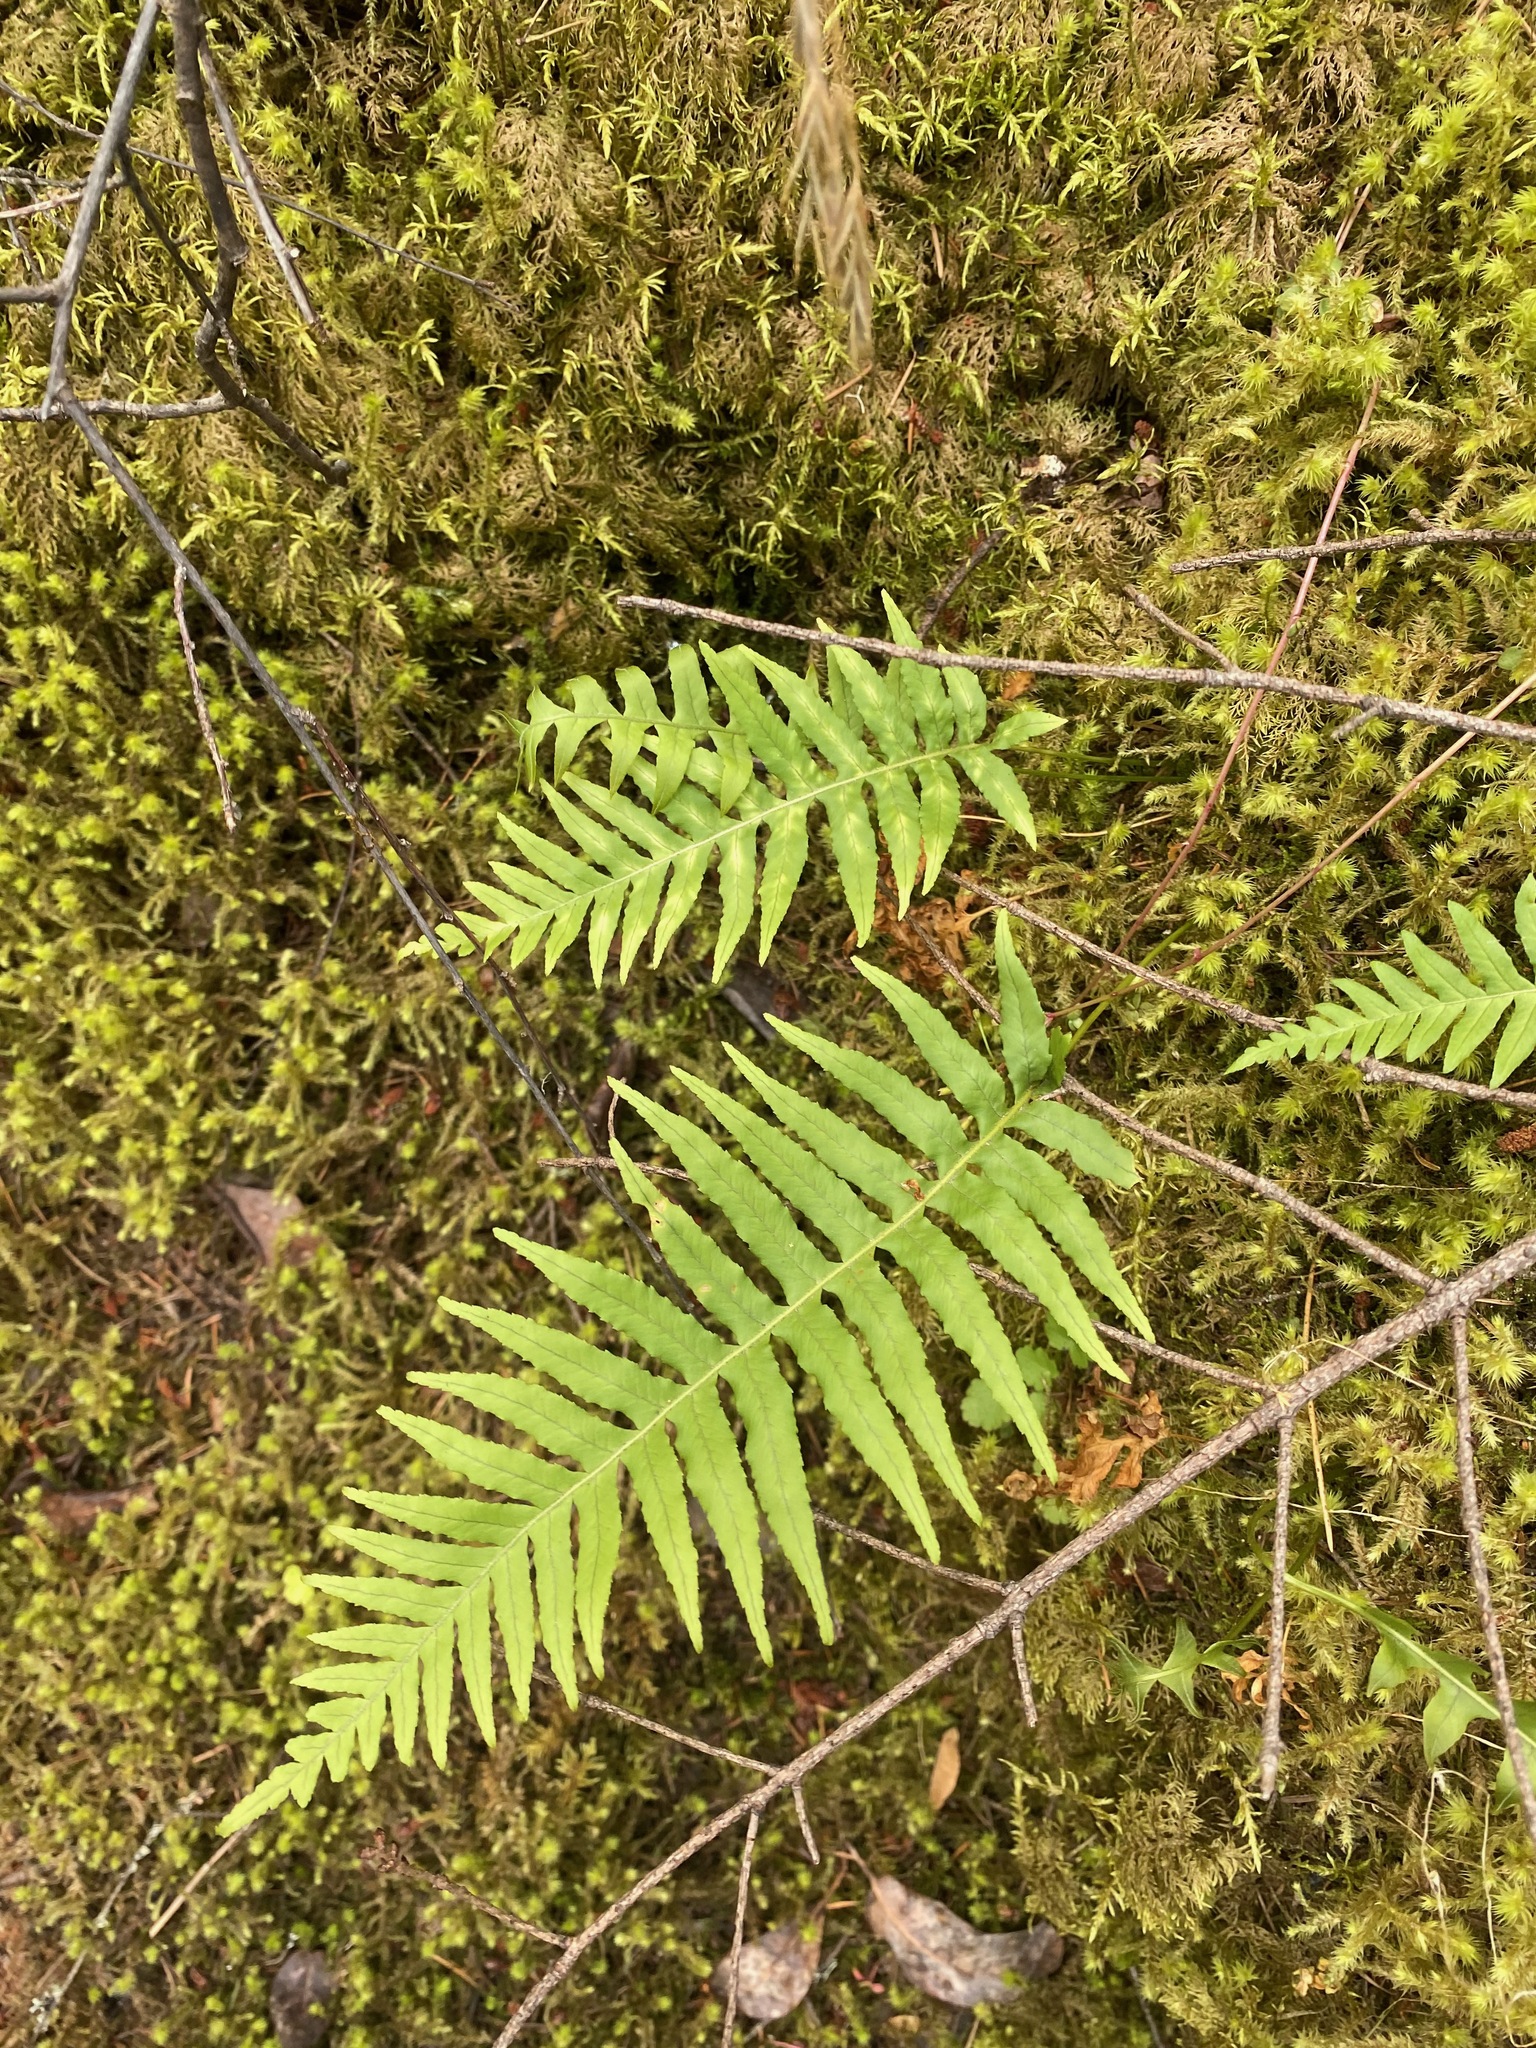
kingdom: Plantae
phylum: Tracheophyta
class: Polypodiopsida
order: Polypodiales
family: Polypodiaceae
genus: Polypodium
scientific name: Polypodium glycyrrhiza
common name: Licorice fern
